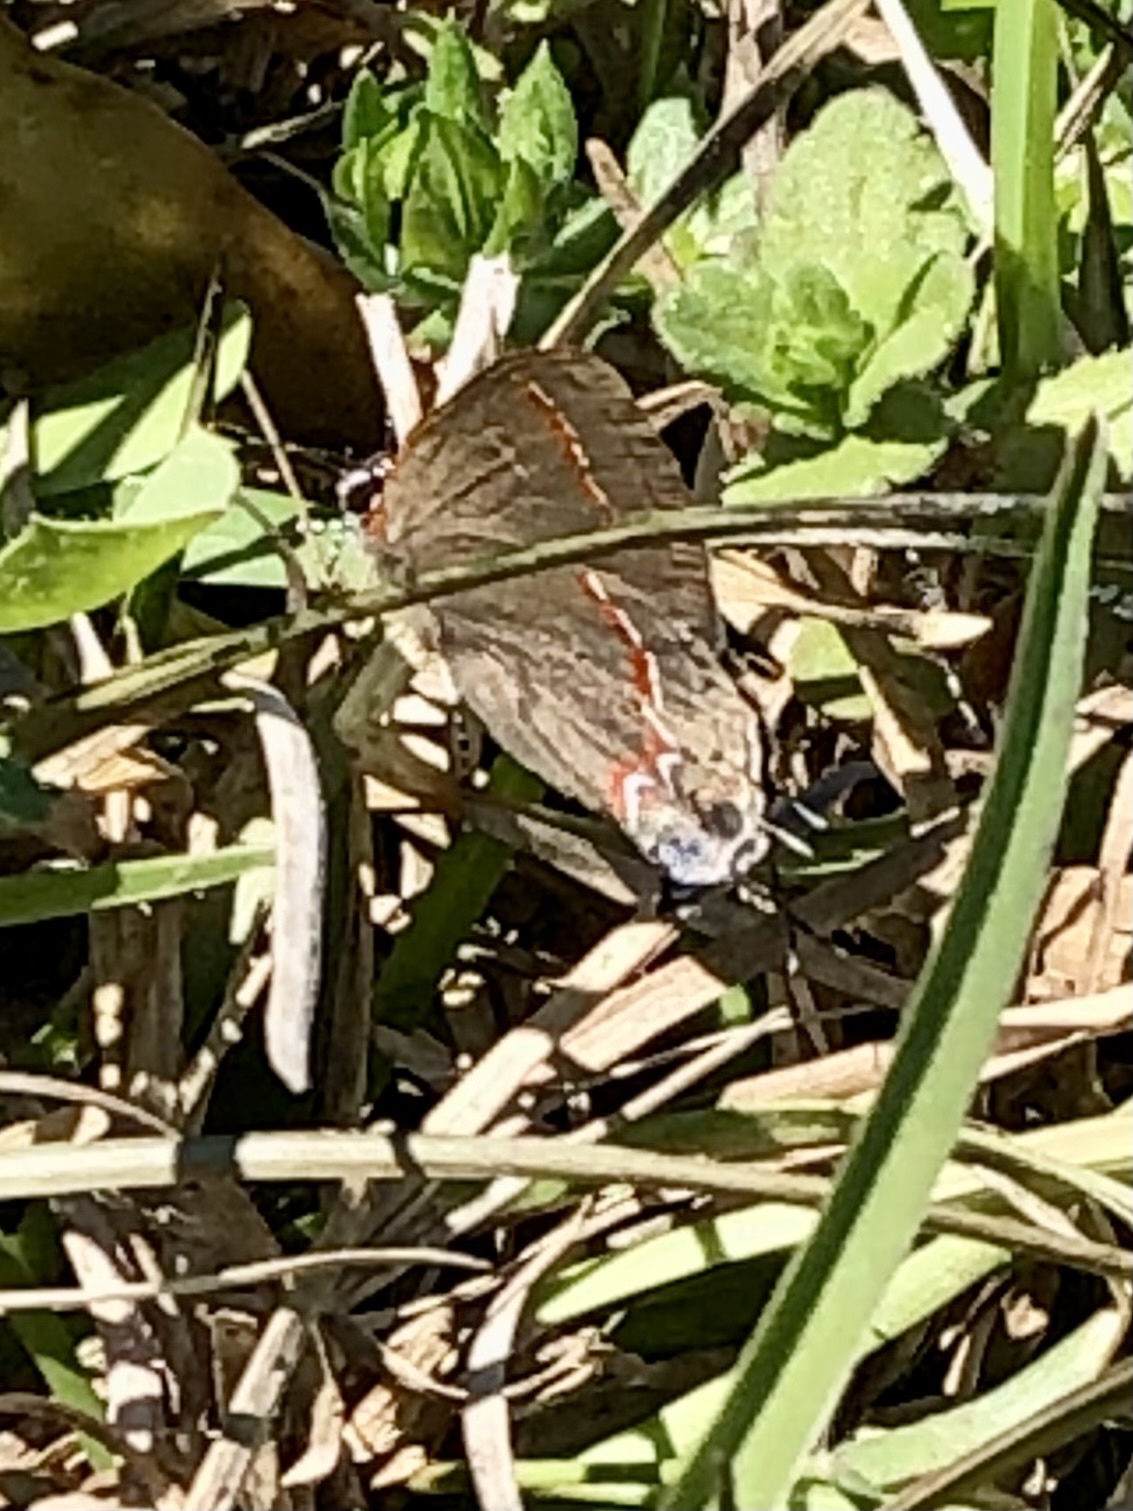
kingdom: Animalia
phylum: Arthropoda
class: Insecta
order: Lepidoptera
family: Lycaenidae
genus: Calycopis
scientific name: Calycopis cecrops
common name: Red-banded hairstreak
